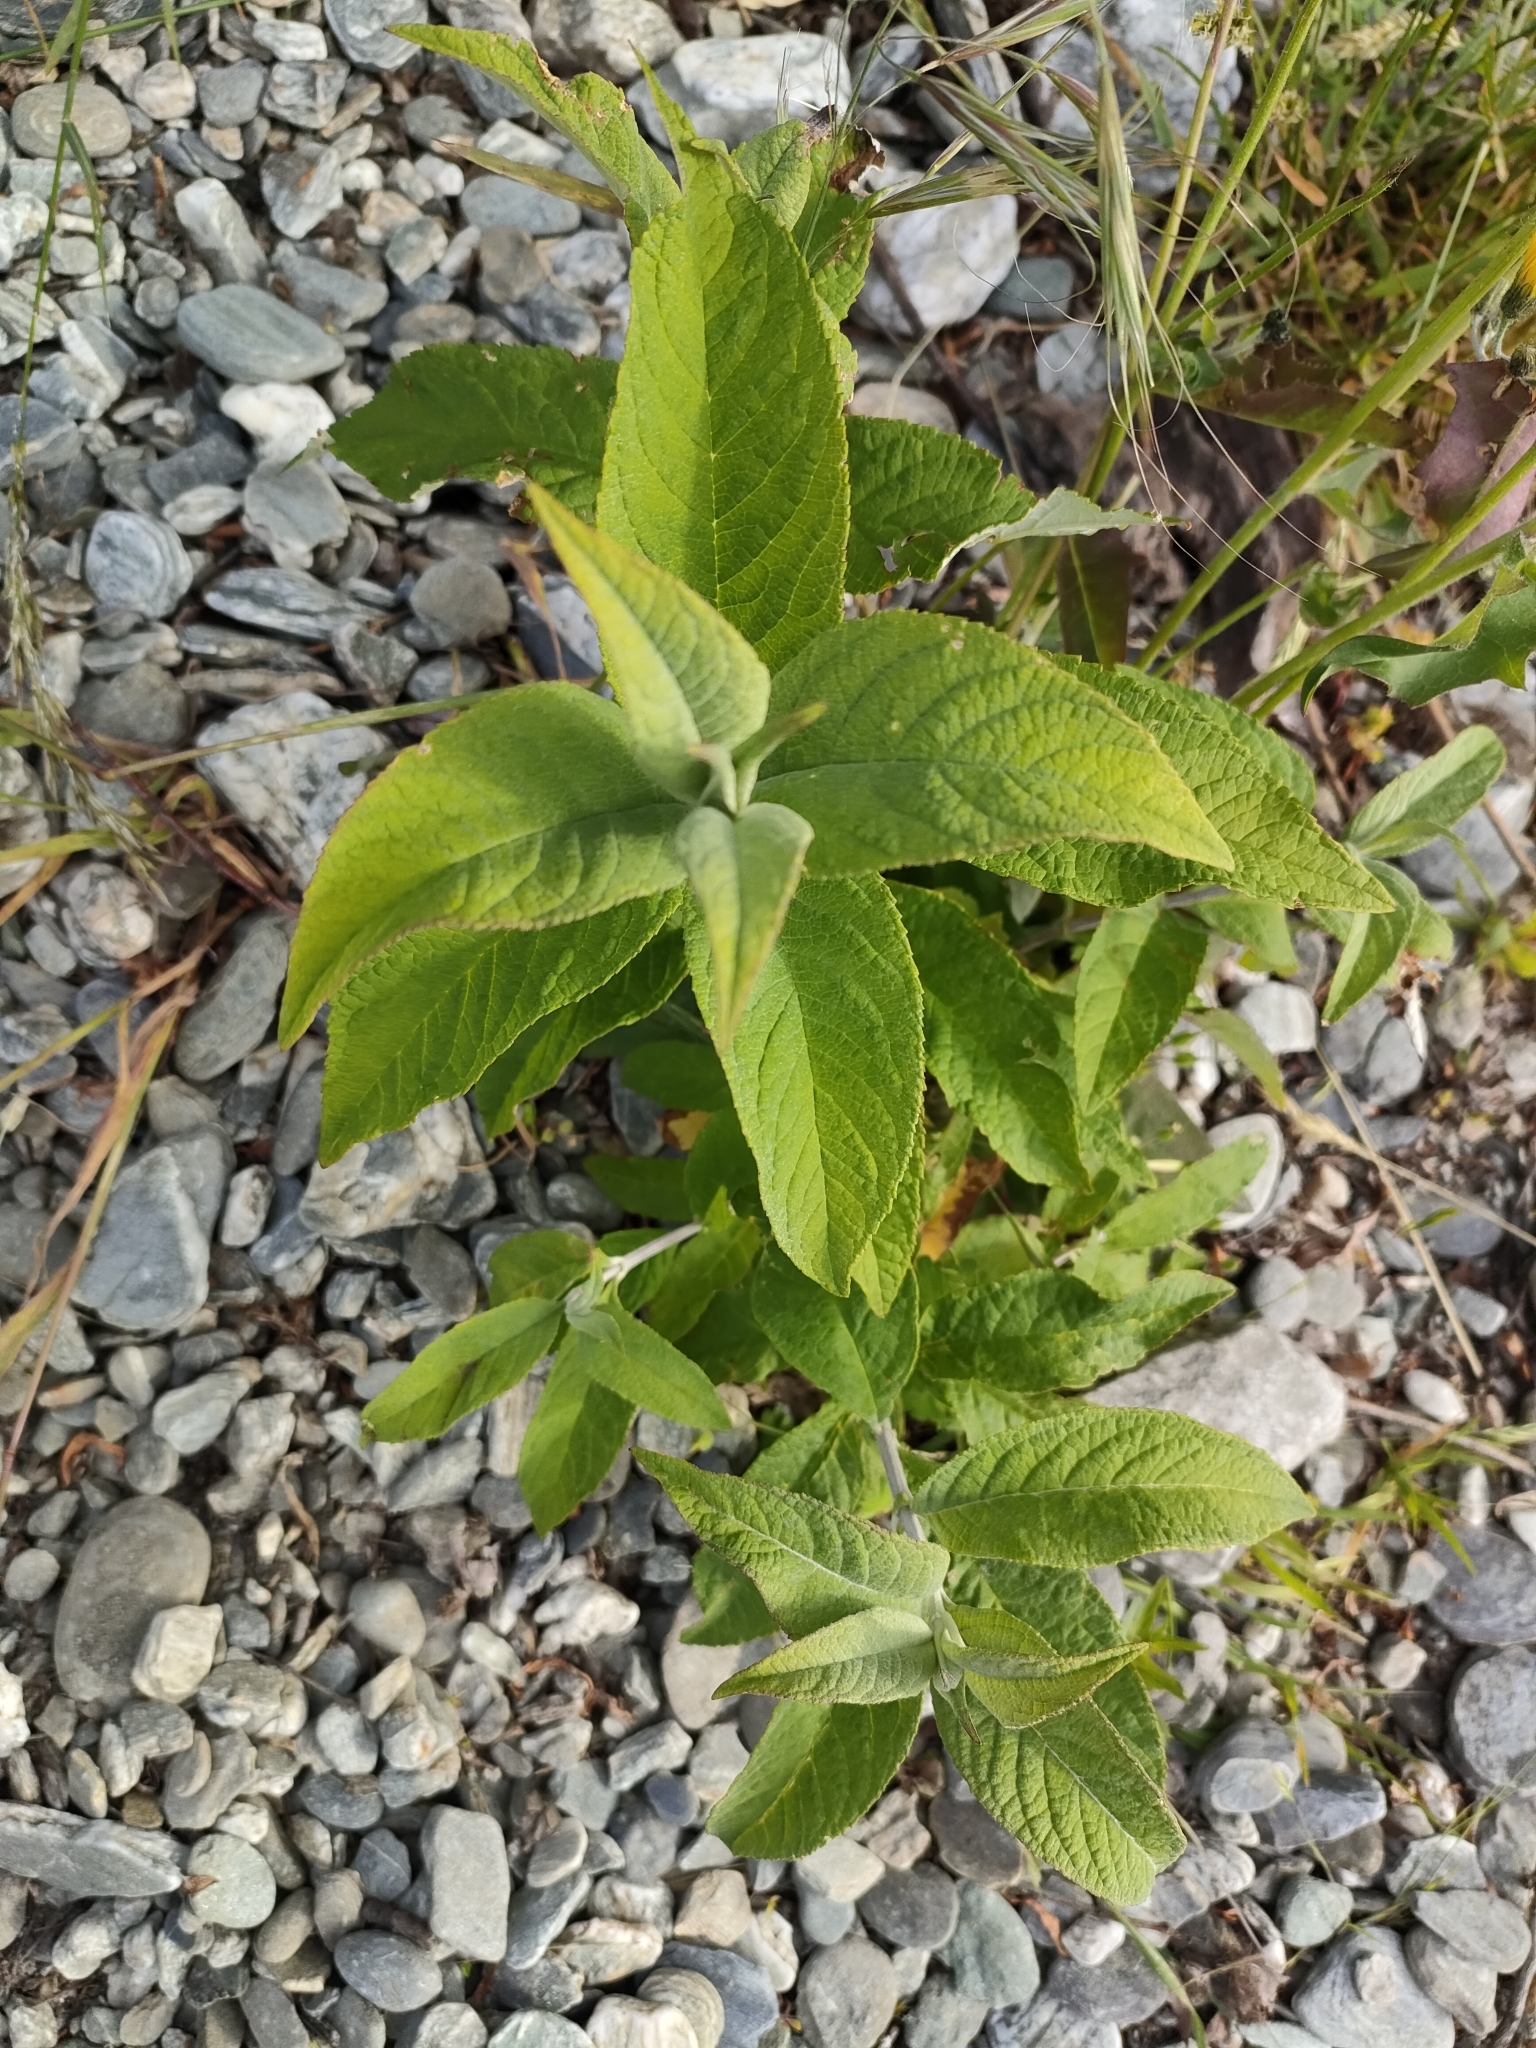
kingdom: Plantae
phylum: Tracheophyta
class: Magnoliopsida
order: Lamiales
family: Scrophulariaceae
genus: Buddleja
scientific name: Buddleja davidii
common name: Butterfly-bush
